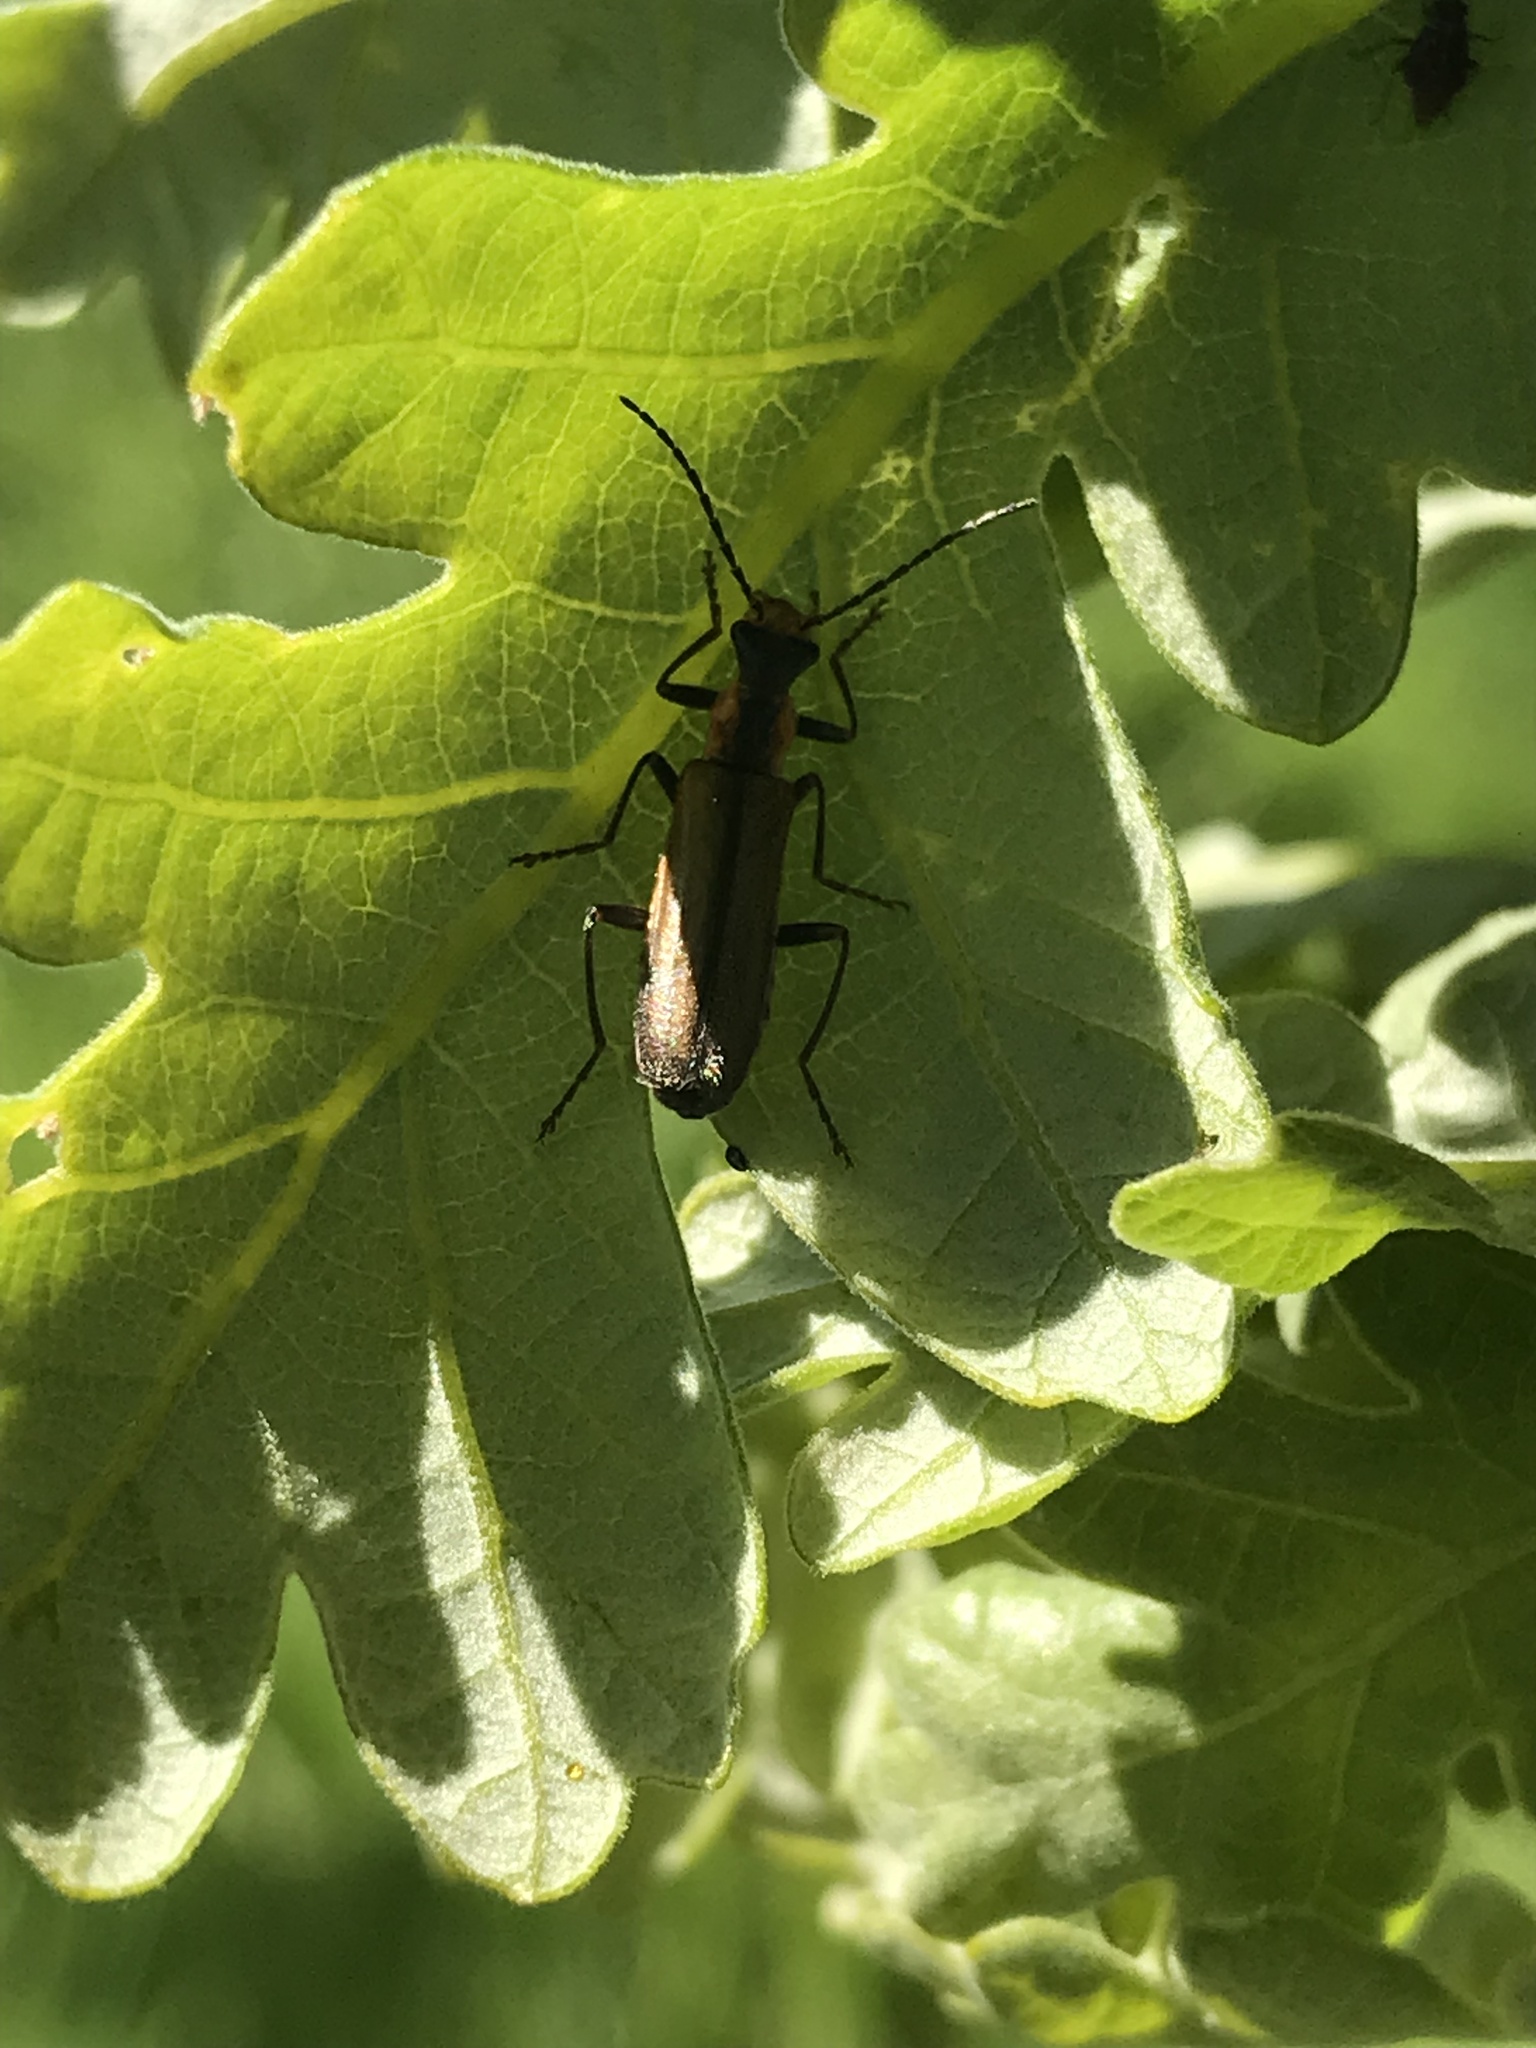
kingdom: Animalia
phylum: Arthropoda
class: Insecta
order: Coleoptera
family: Cantharidae
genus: Dichelotarsus
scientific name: Dichelotarsus cavicollis
